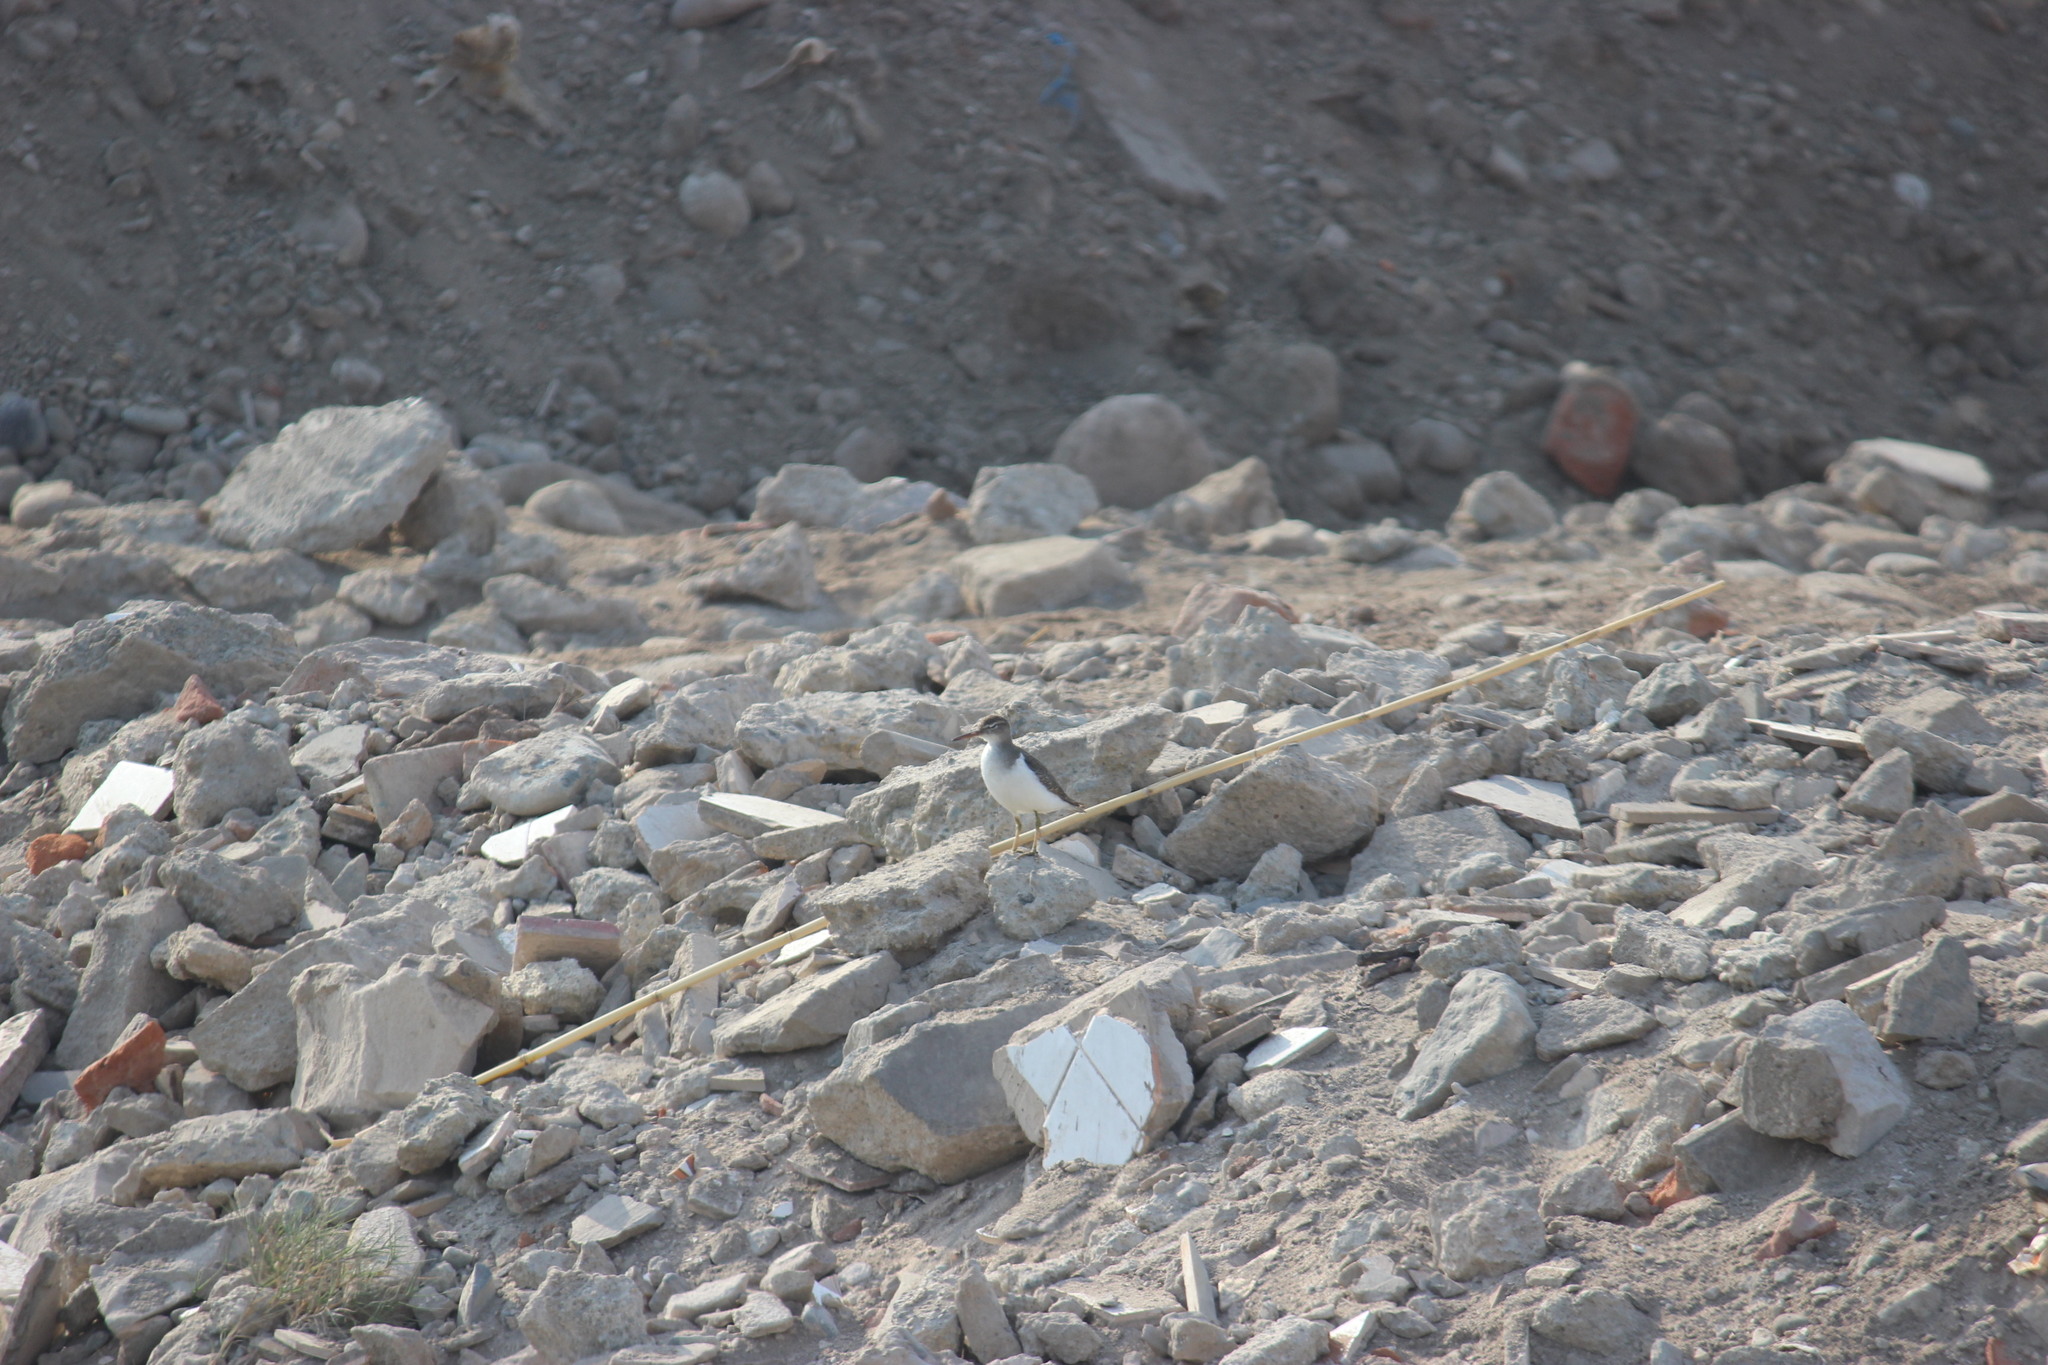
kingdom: Animalia
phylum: Chordata
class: Aves
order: Charadriiformes
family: Scolopacidae
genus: Actitis
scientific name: Actitis macularius
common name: Spotted sandpiper
